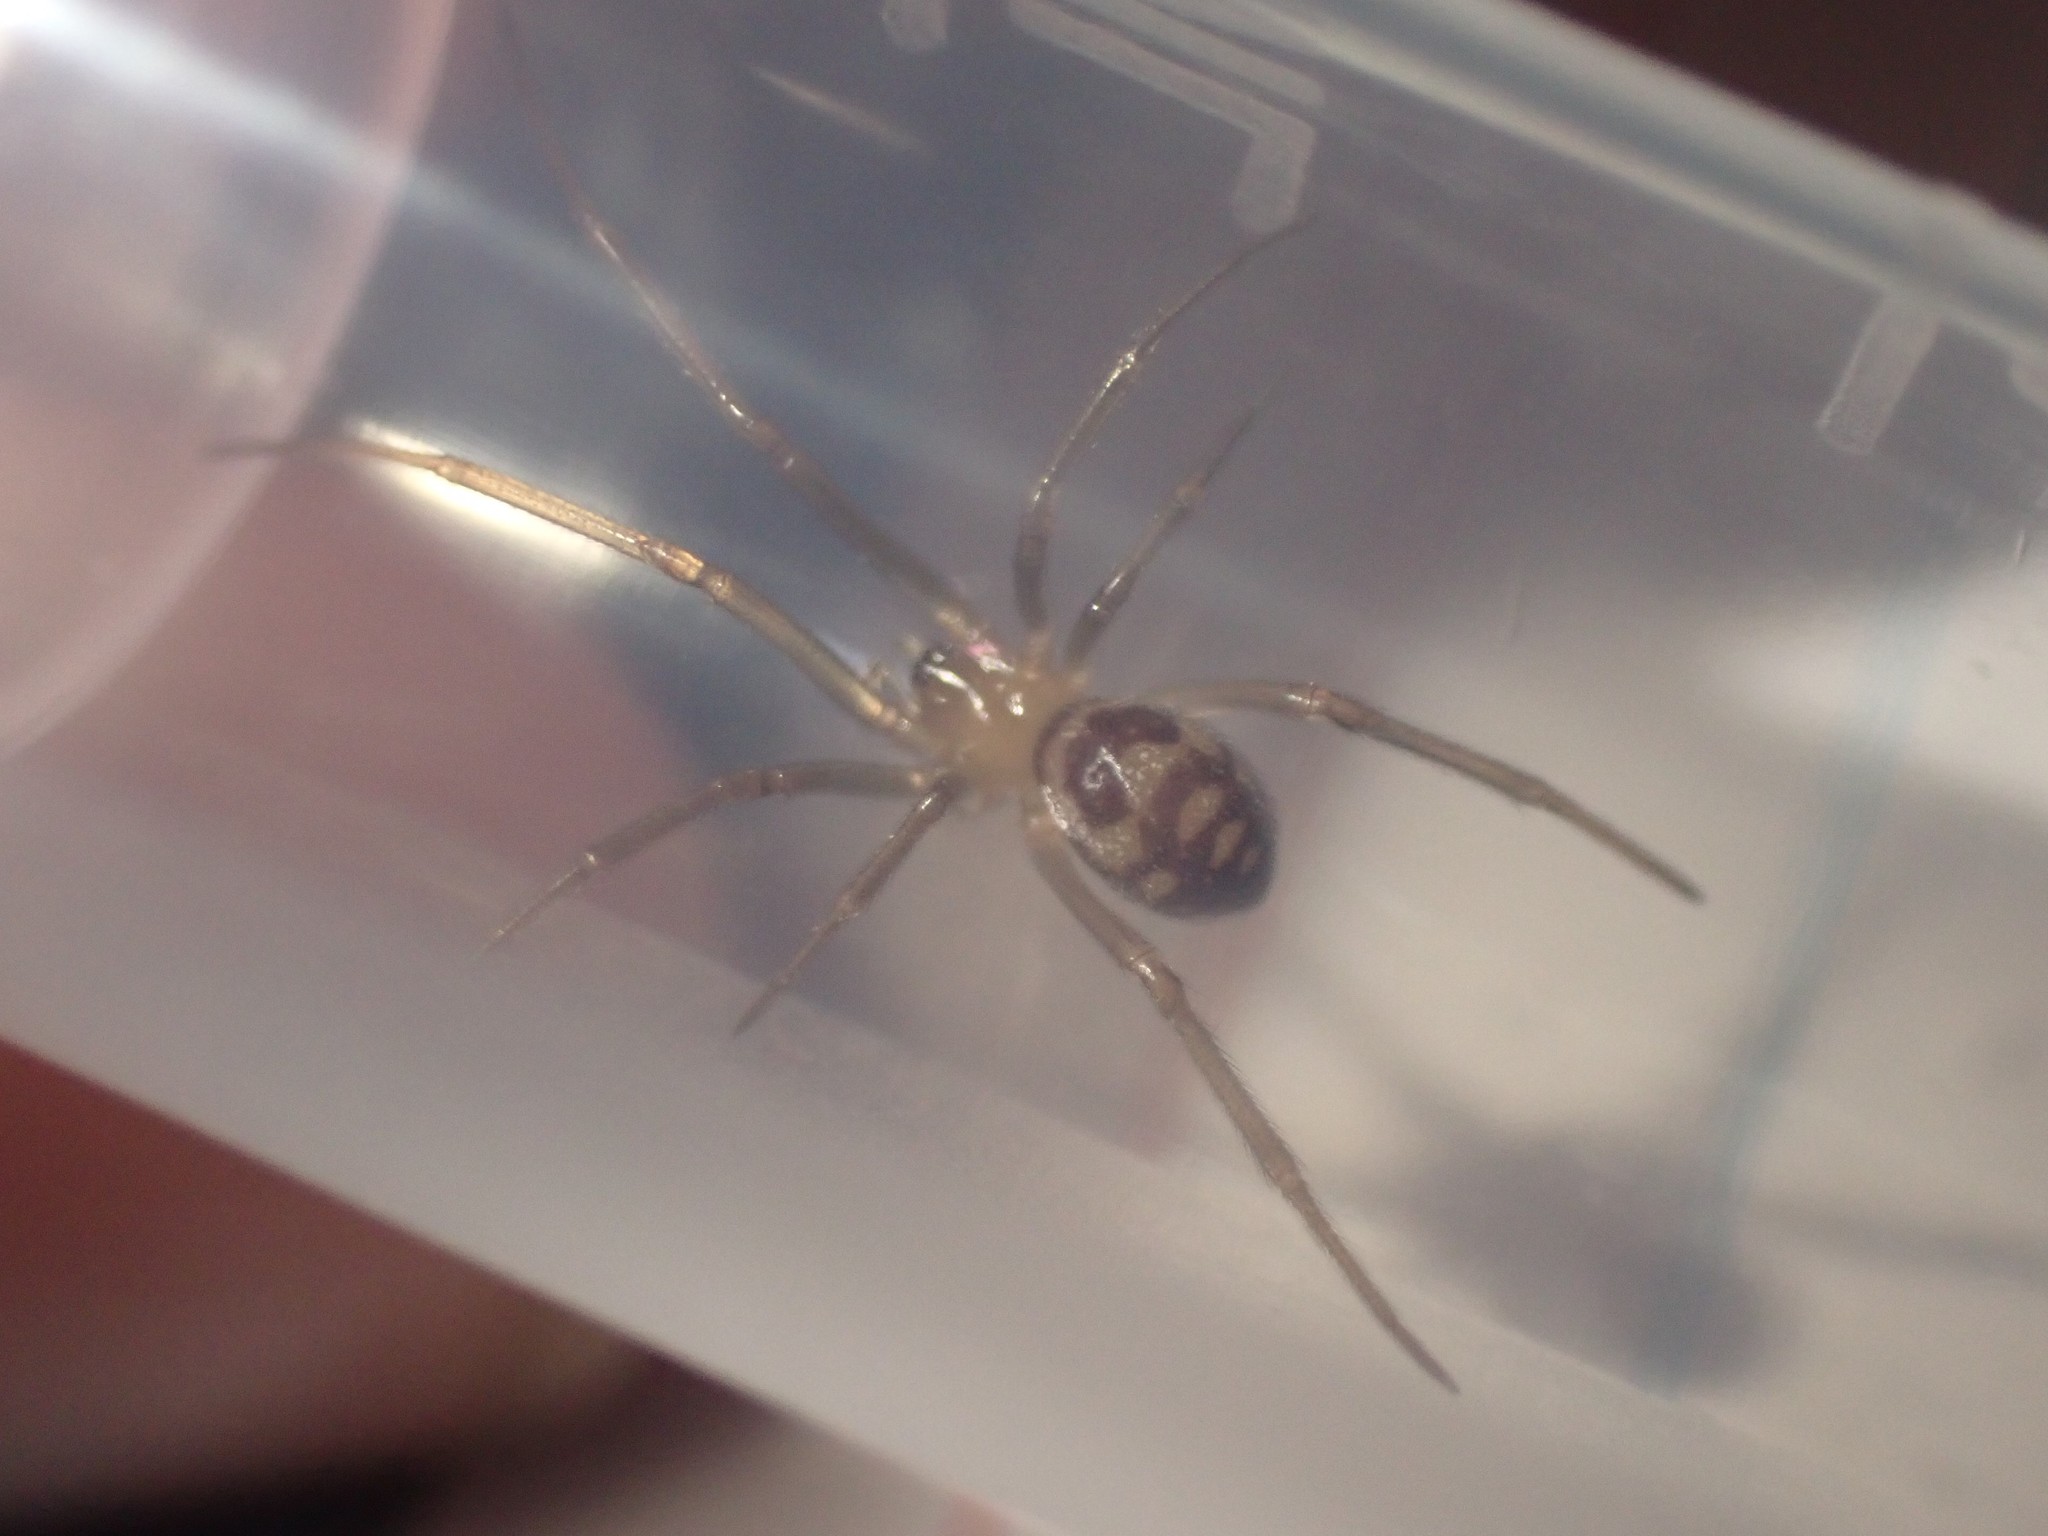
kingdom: Animalia
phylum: Arthropoda
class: Arachnida
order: Araneae
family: Theridiidae
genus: Steatoda
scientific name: Steatoda grossa
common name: False black widow
